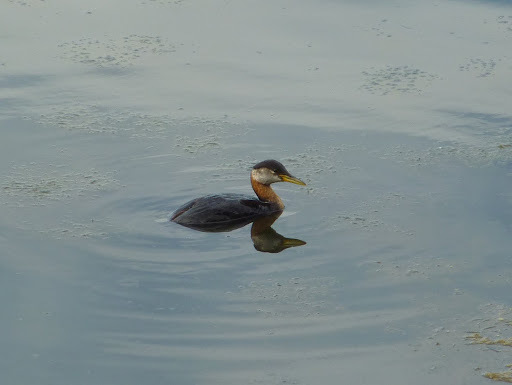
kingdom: Animalia
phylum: Chordata
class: Aves
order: Podicipediformes
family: Podicipedidae
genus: Podiceps
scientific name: Podiceps grisegena
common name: Red-necked grebe
